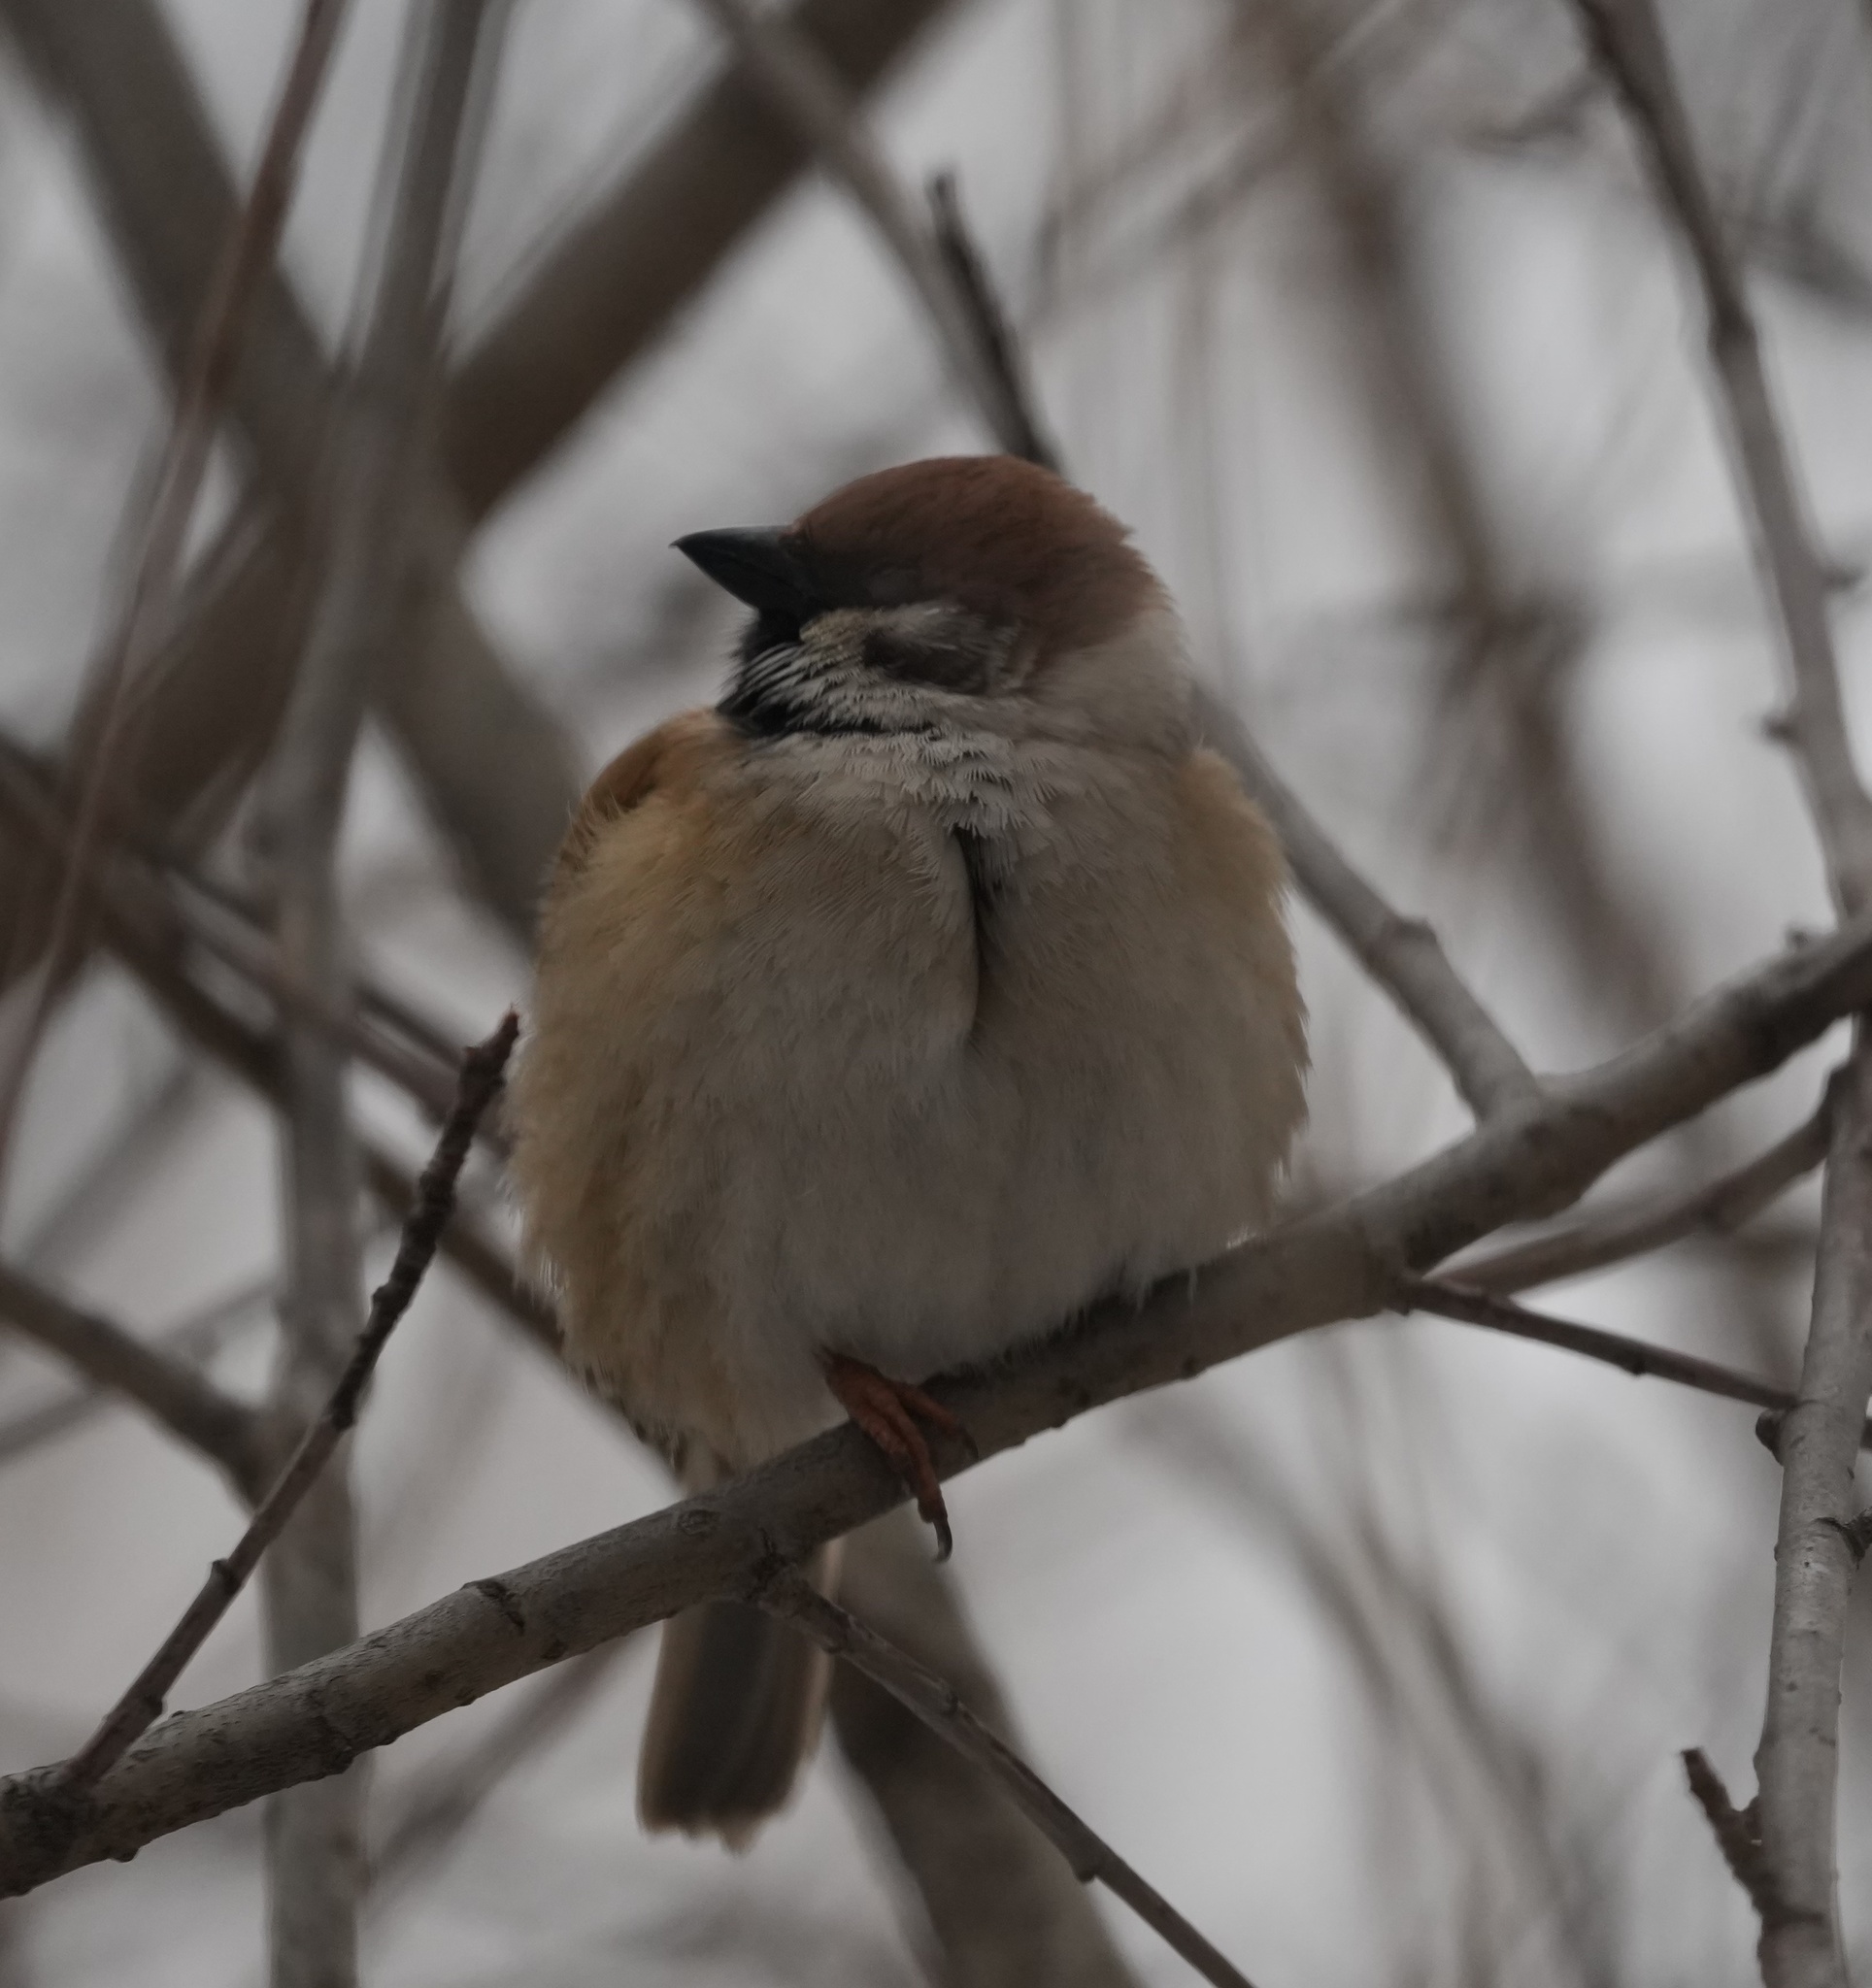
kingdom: Animalia
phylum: Chordata
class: Aves
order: Passeriformes
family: Passeridae
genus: Passer
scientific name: Passer montanus
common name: Eurasian tree sparrow
